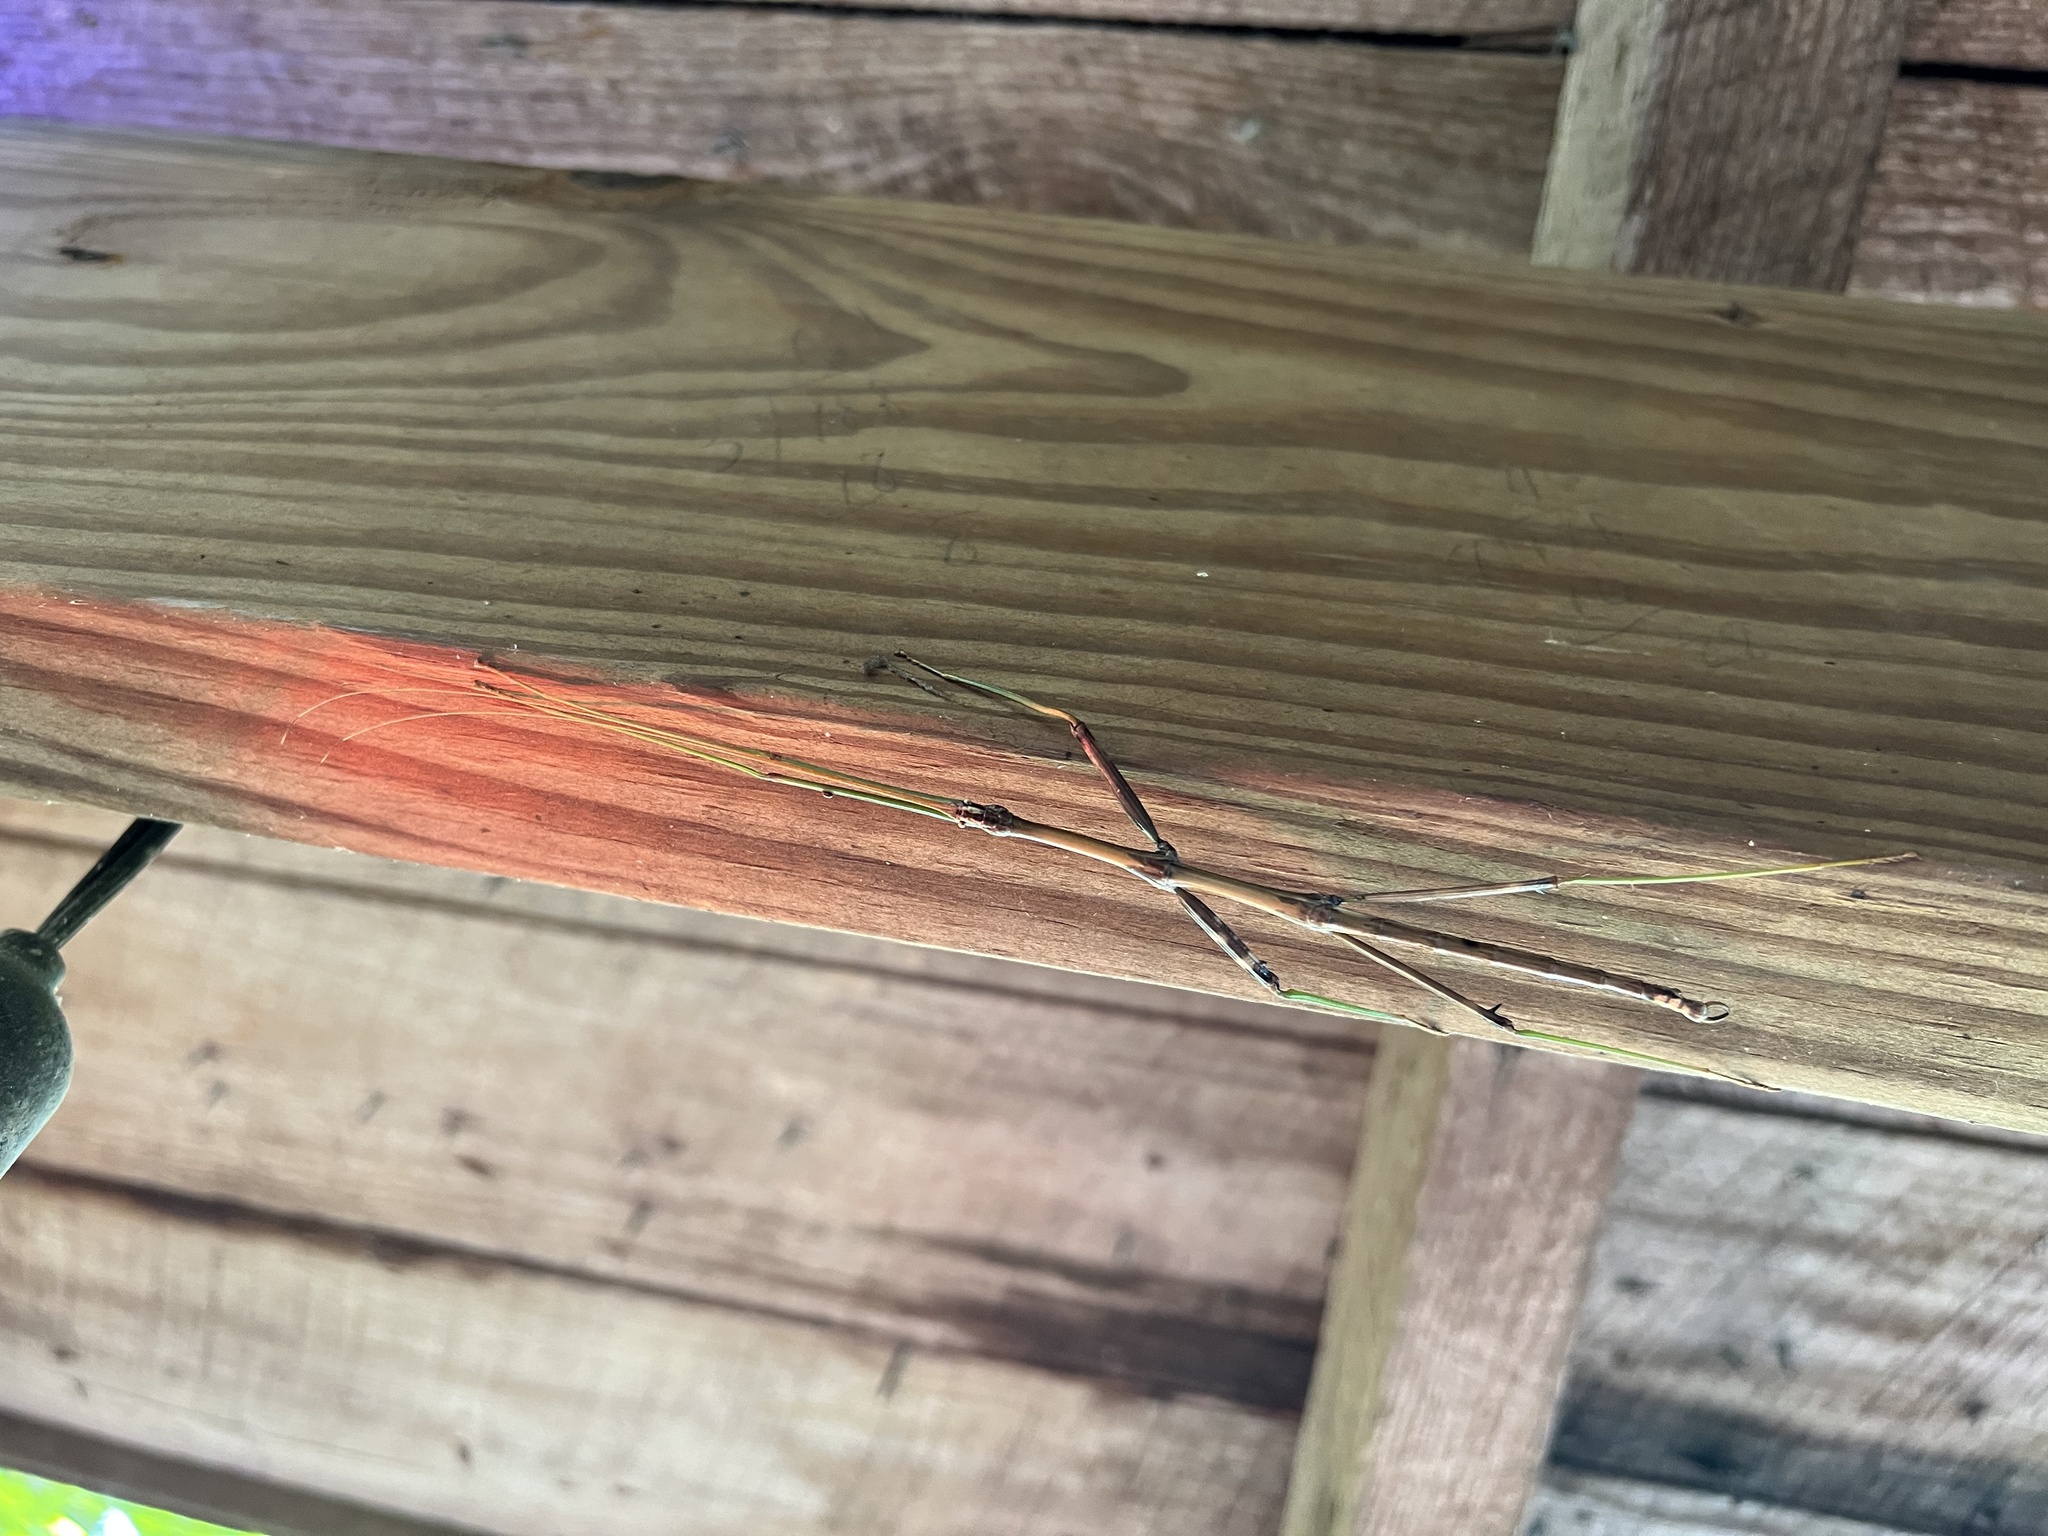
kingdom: Animalia
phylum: Arthropoda
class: Insecta
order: Phasmida
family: Diapheromeridae
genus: Diapheromera
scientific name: Diapheromera femorata
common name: Common american walkingstick
